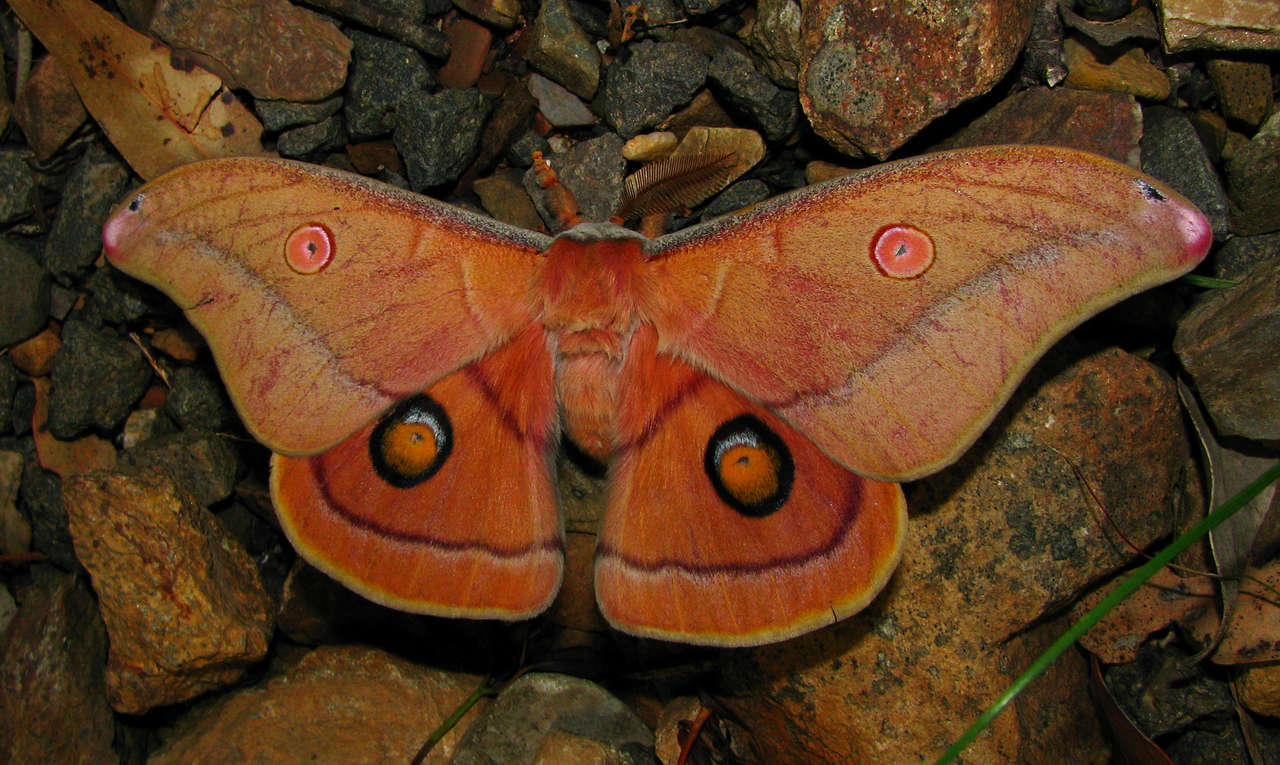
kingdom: Animalia
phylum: Arthropoda
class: Insecta
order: Lepidoptera
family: Saturniidae
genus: Opodiphthera
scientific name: Opodiphthera
